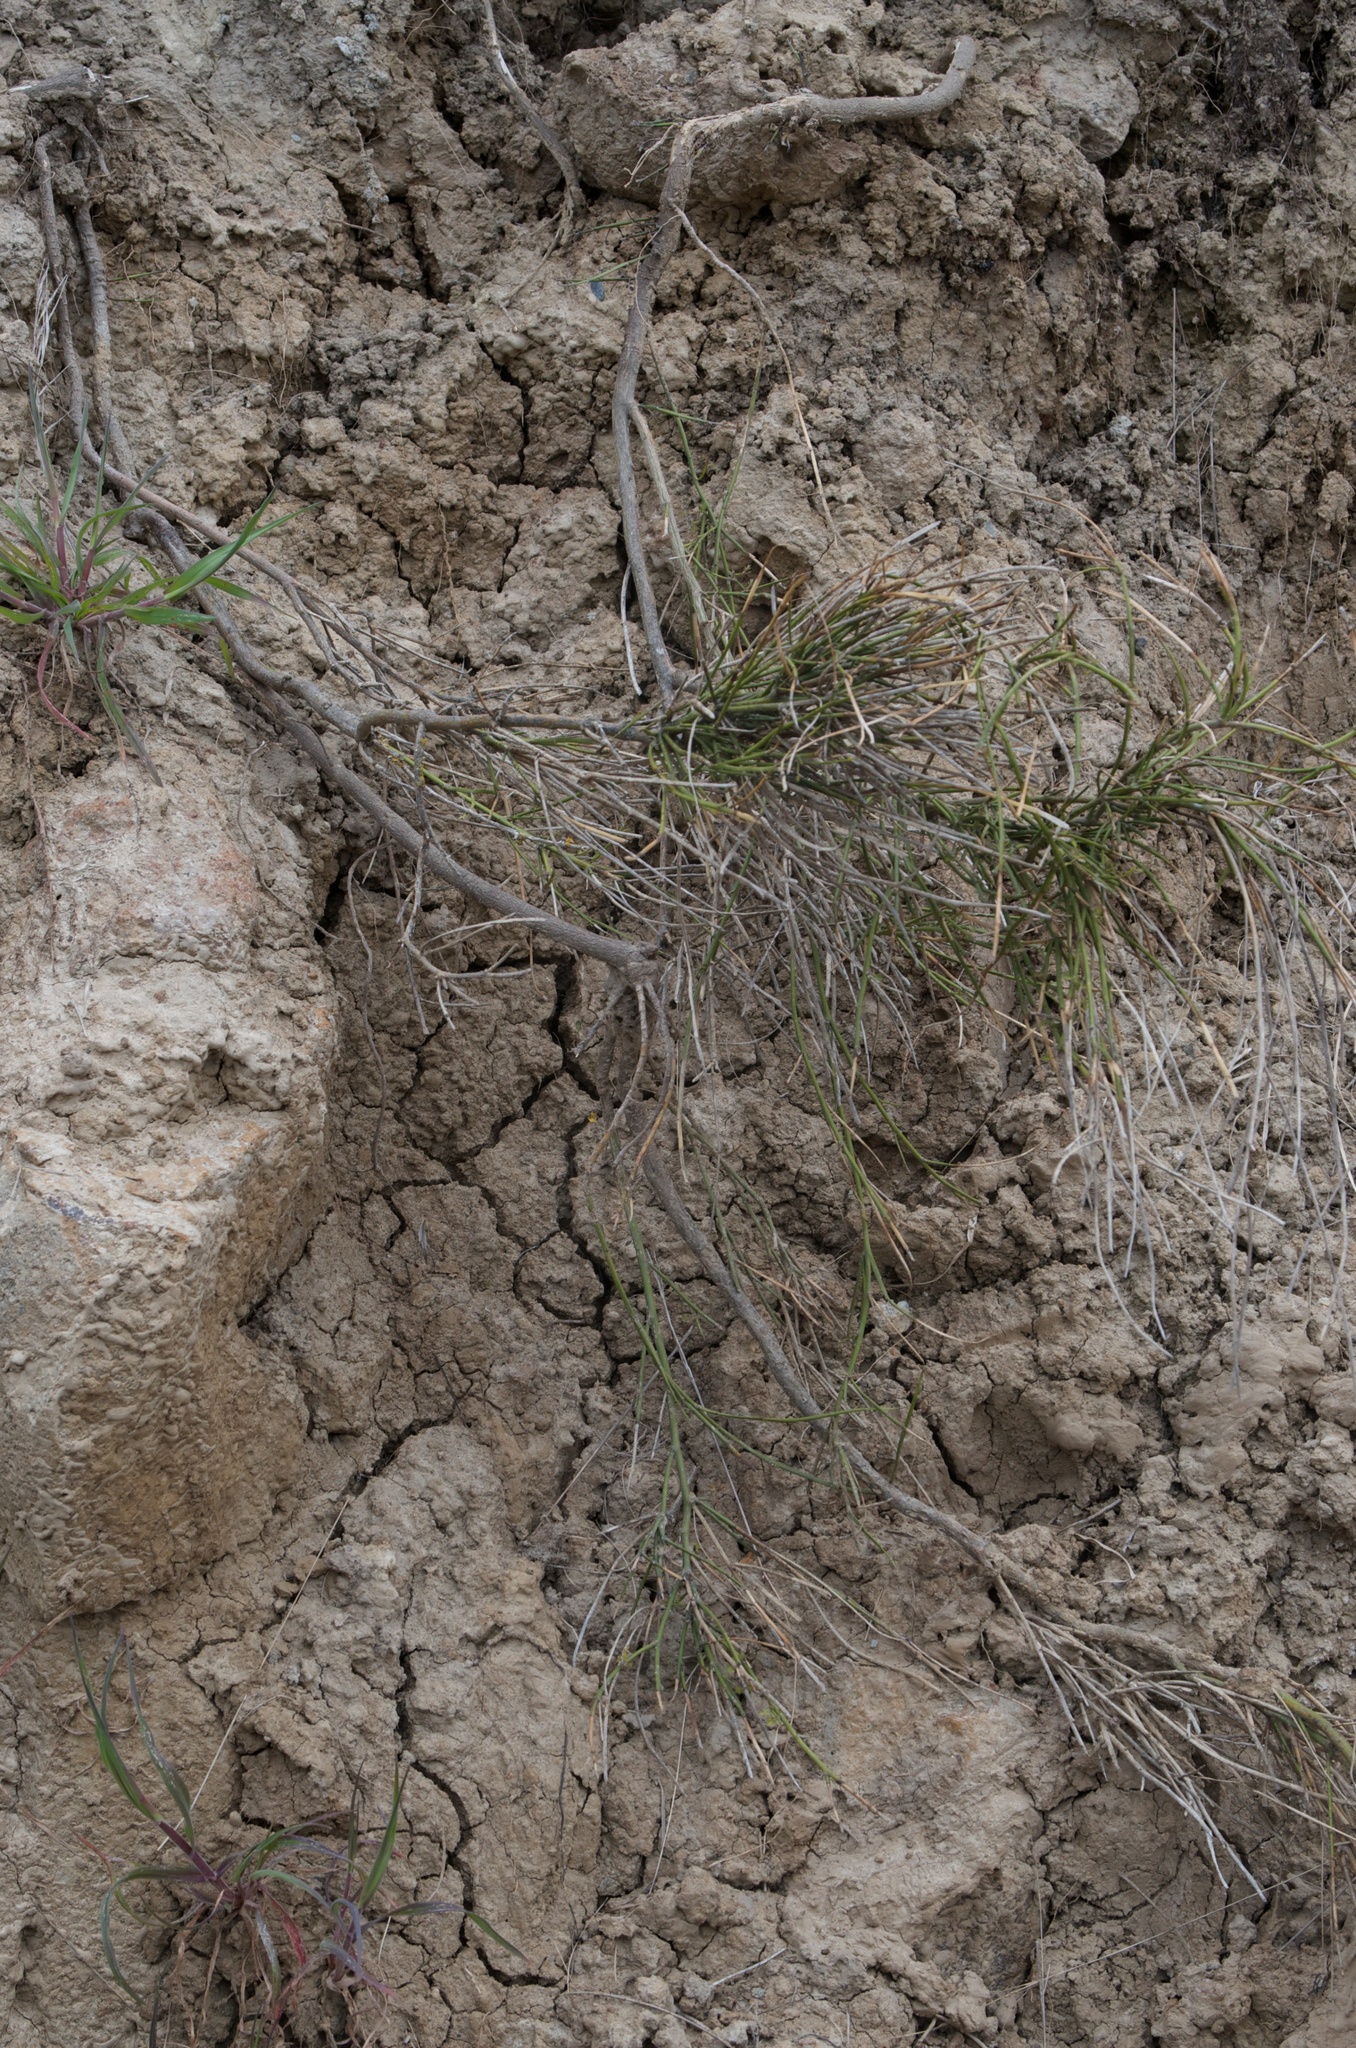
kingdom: Plantae
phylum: Tracheophyta
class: Magnoliopsida
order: Fabales
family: Fabaceae
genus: Carmichaelia
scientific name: Carmichaelia australis
